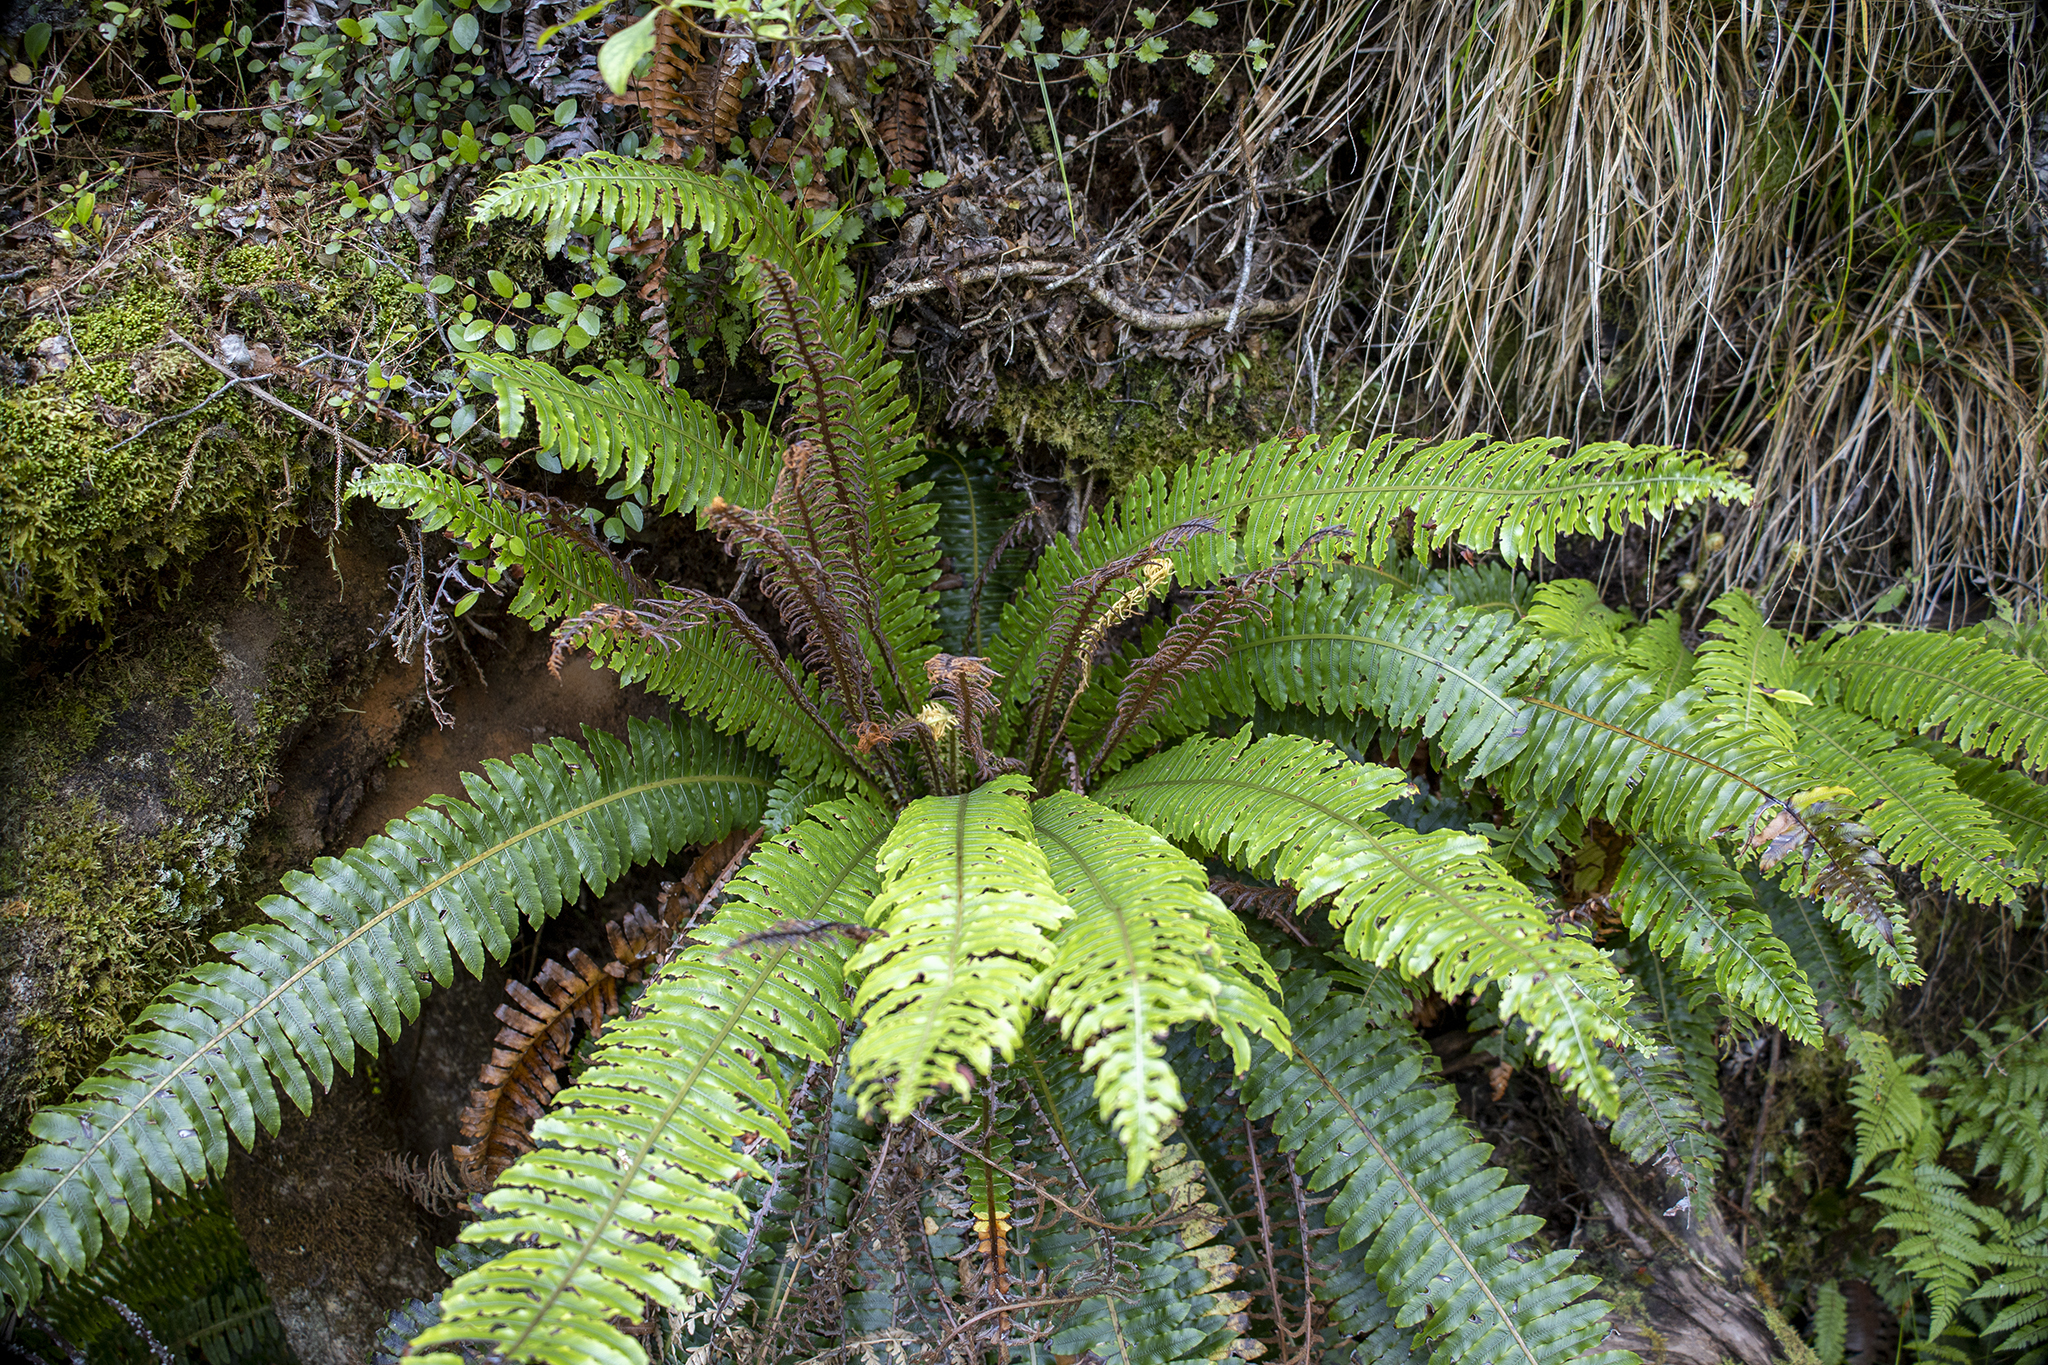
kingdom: Plantae
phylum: Tracheophyta
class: Polypodiopsida
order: Polypodiales
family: Blechnaceae
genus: Lomaria
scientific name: Lomaria discolor
